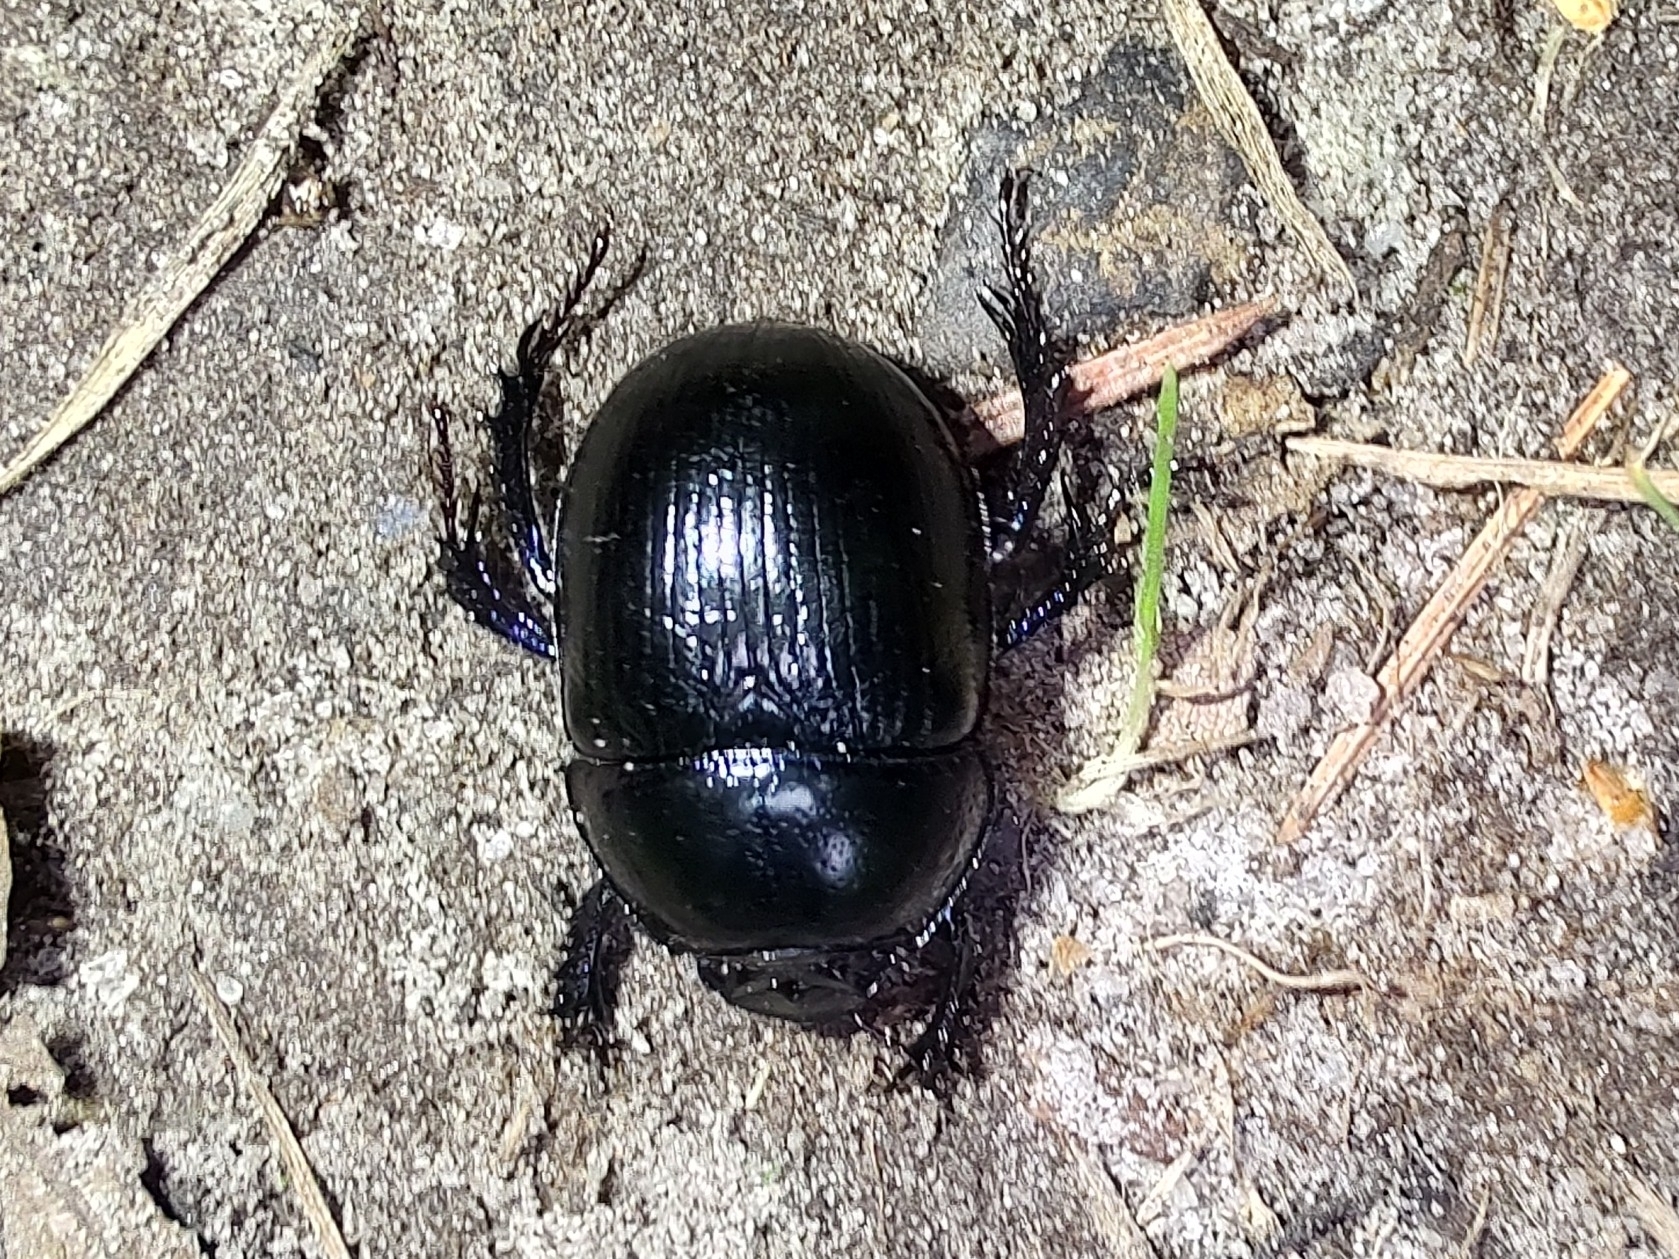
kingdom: Animalia
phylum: Arthropoda
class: Insecta
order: Coleoptera
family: Geotrupidae
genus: Anoplotrupes
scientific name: Anoplotrupes stercorosus
